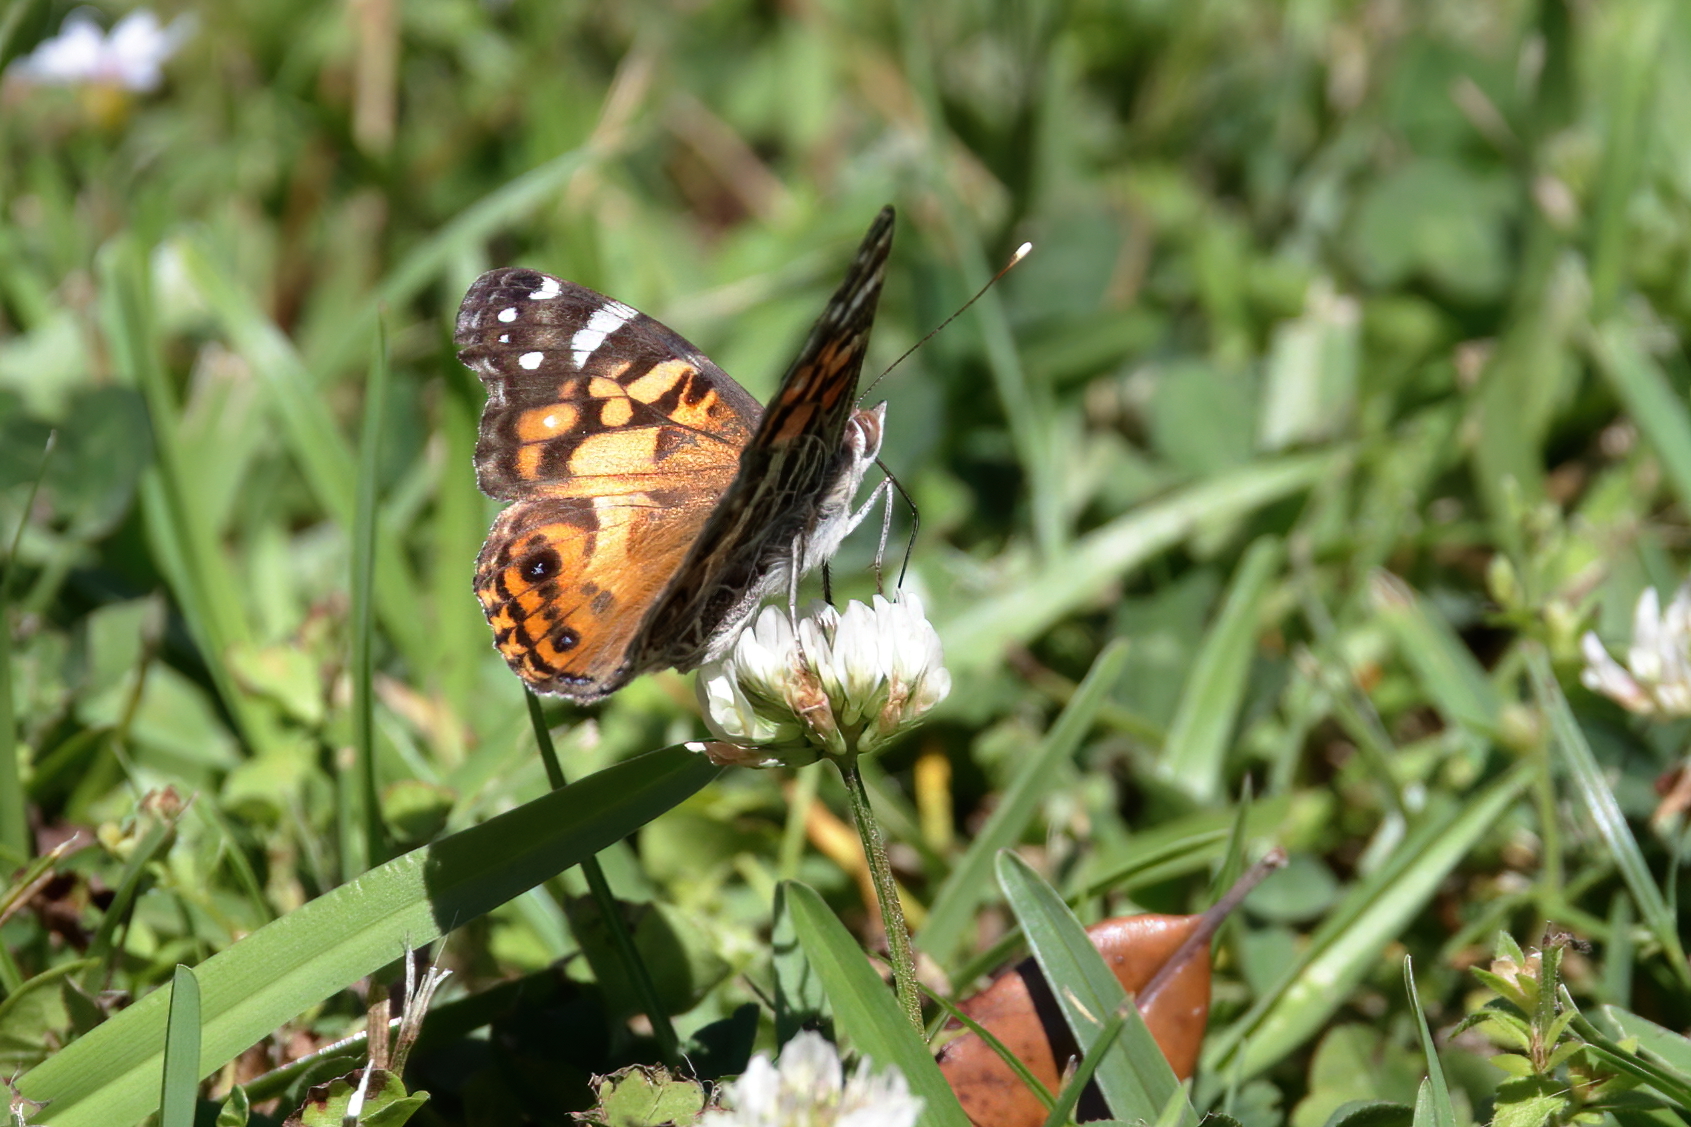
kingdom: Animalia
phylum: Arthropoda
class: Insecta
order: Lepidoptera
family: Nymphalidae
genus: Vanessa
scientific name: Vanessa virginiensis
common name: American lady
